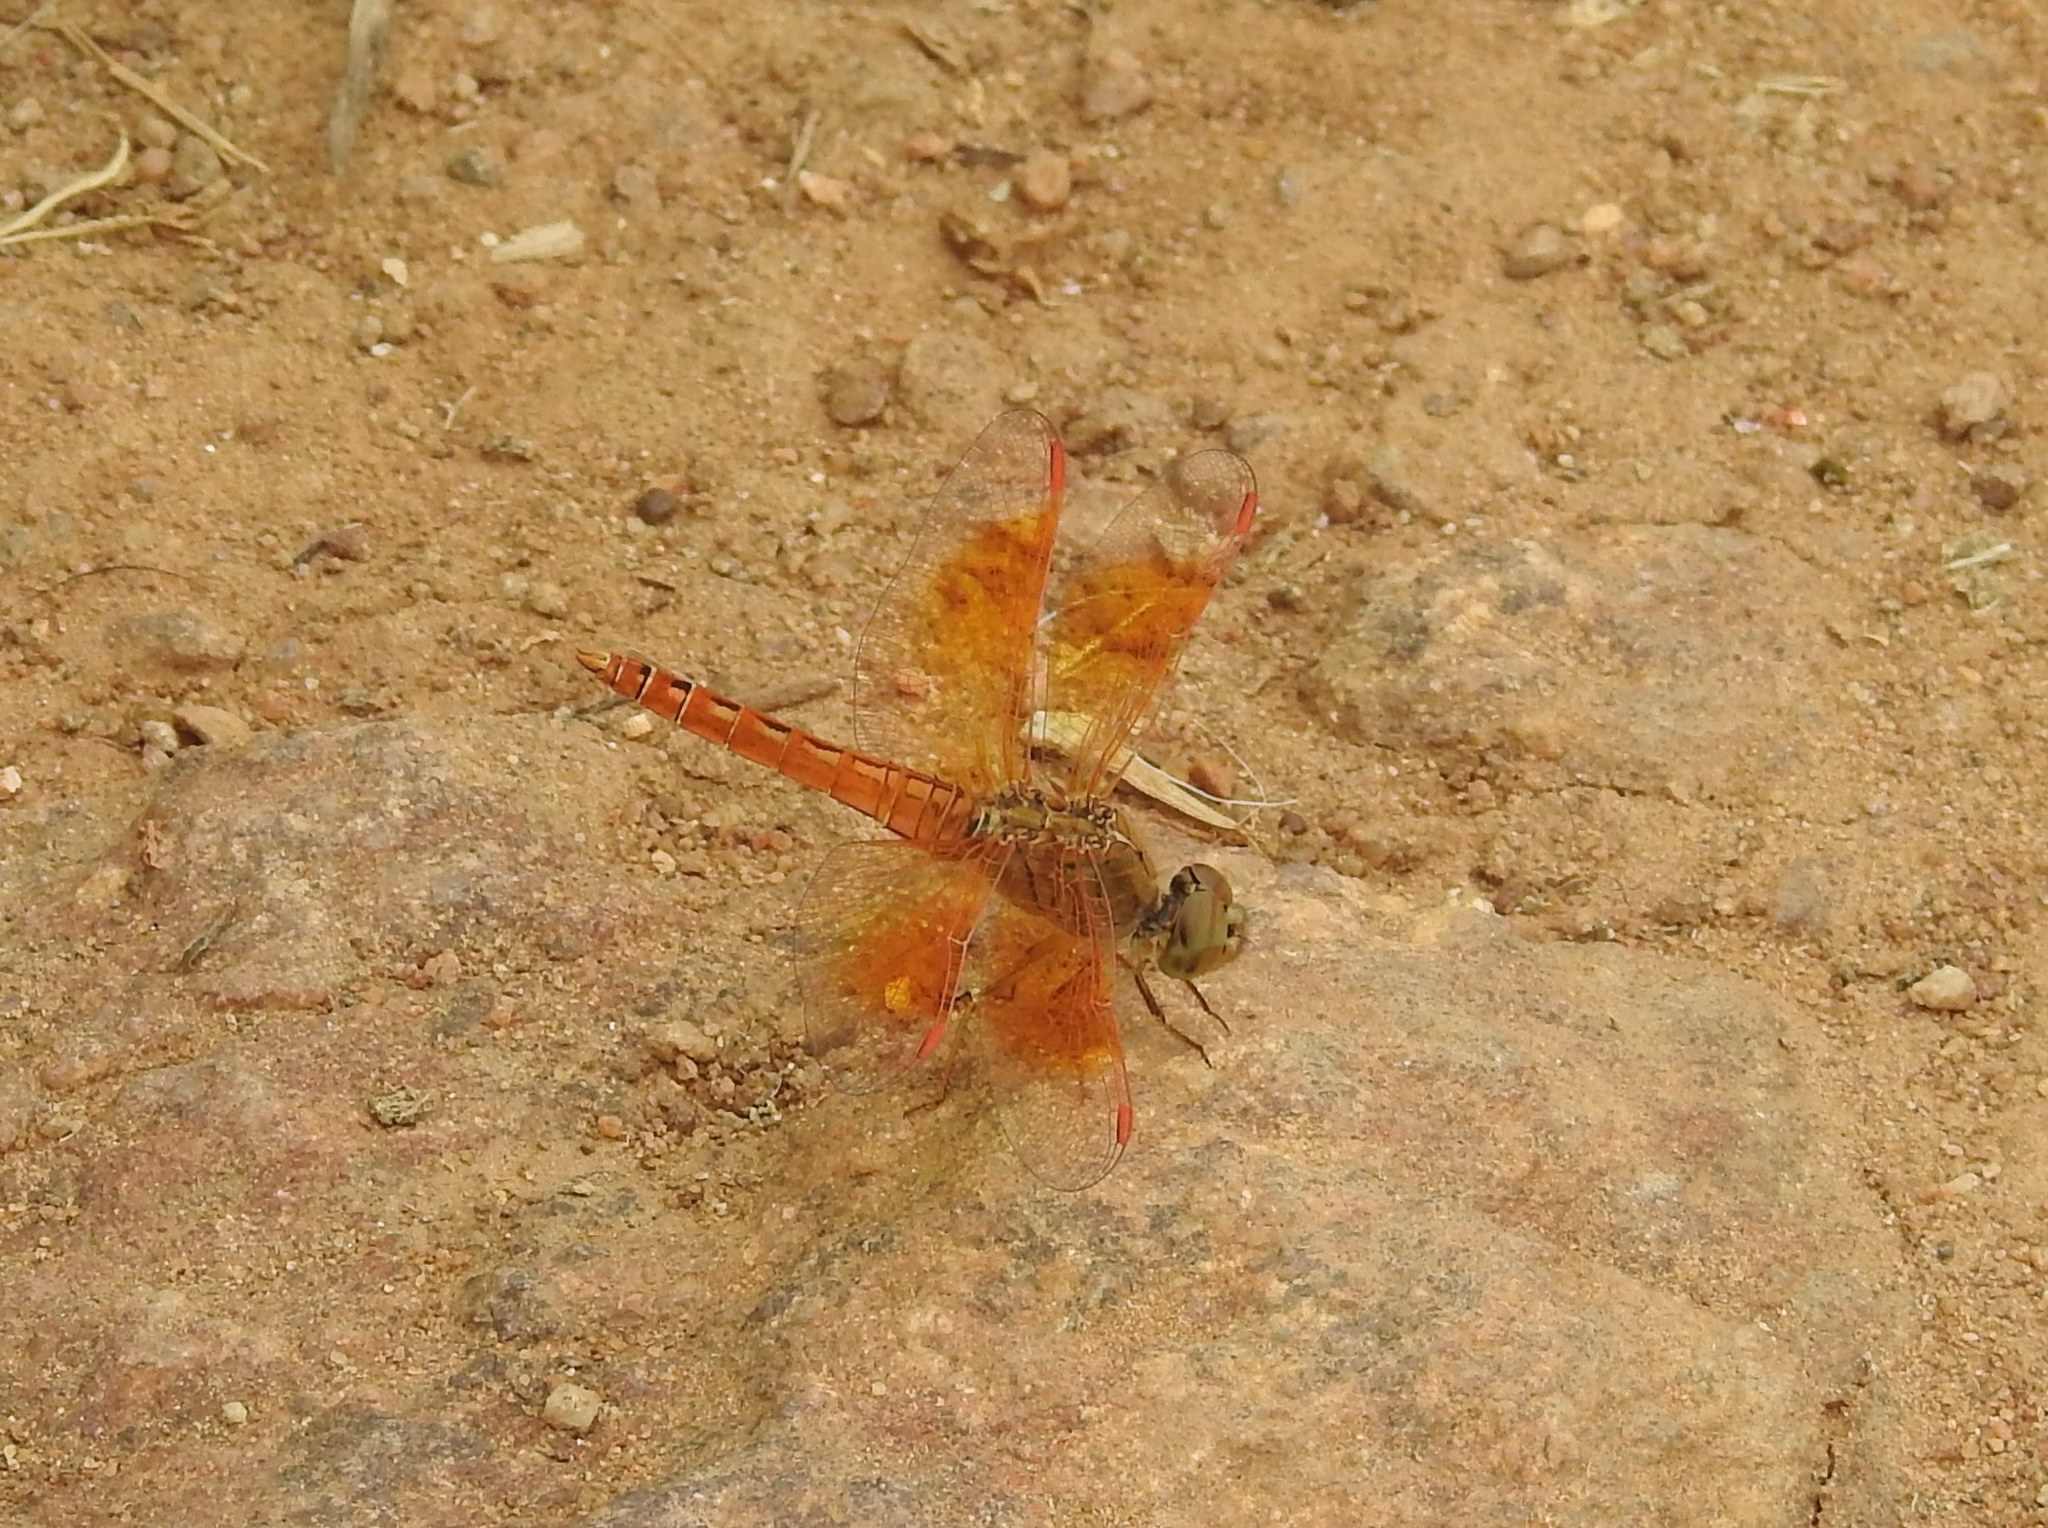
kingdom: Animalia
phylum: Arthropoda
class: Insecta
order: Odonata
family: Libellulidae
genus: Brachythemis
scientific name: Brachythemis contaminata
